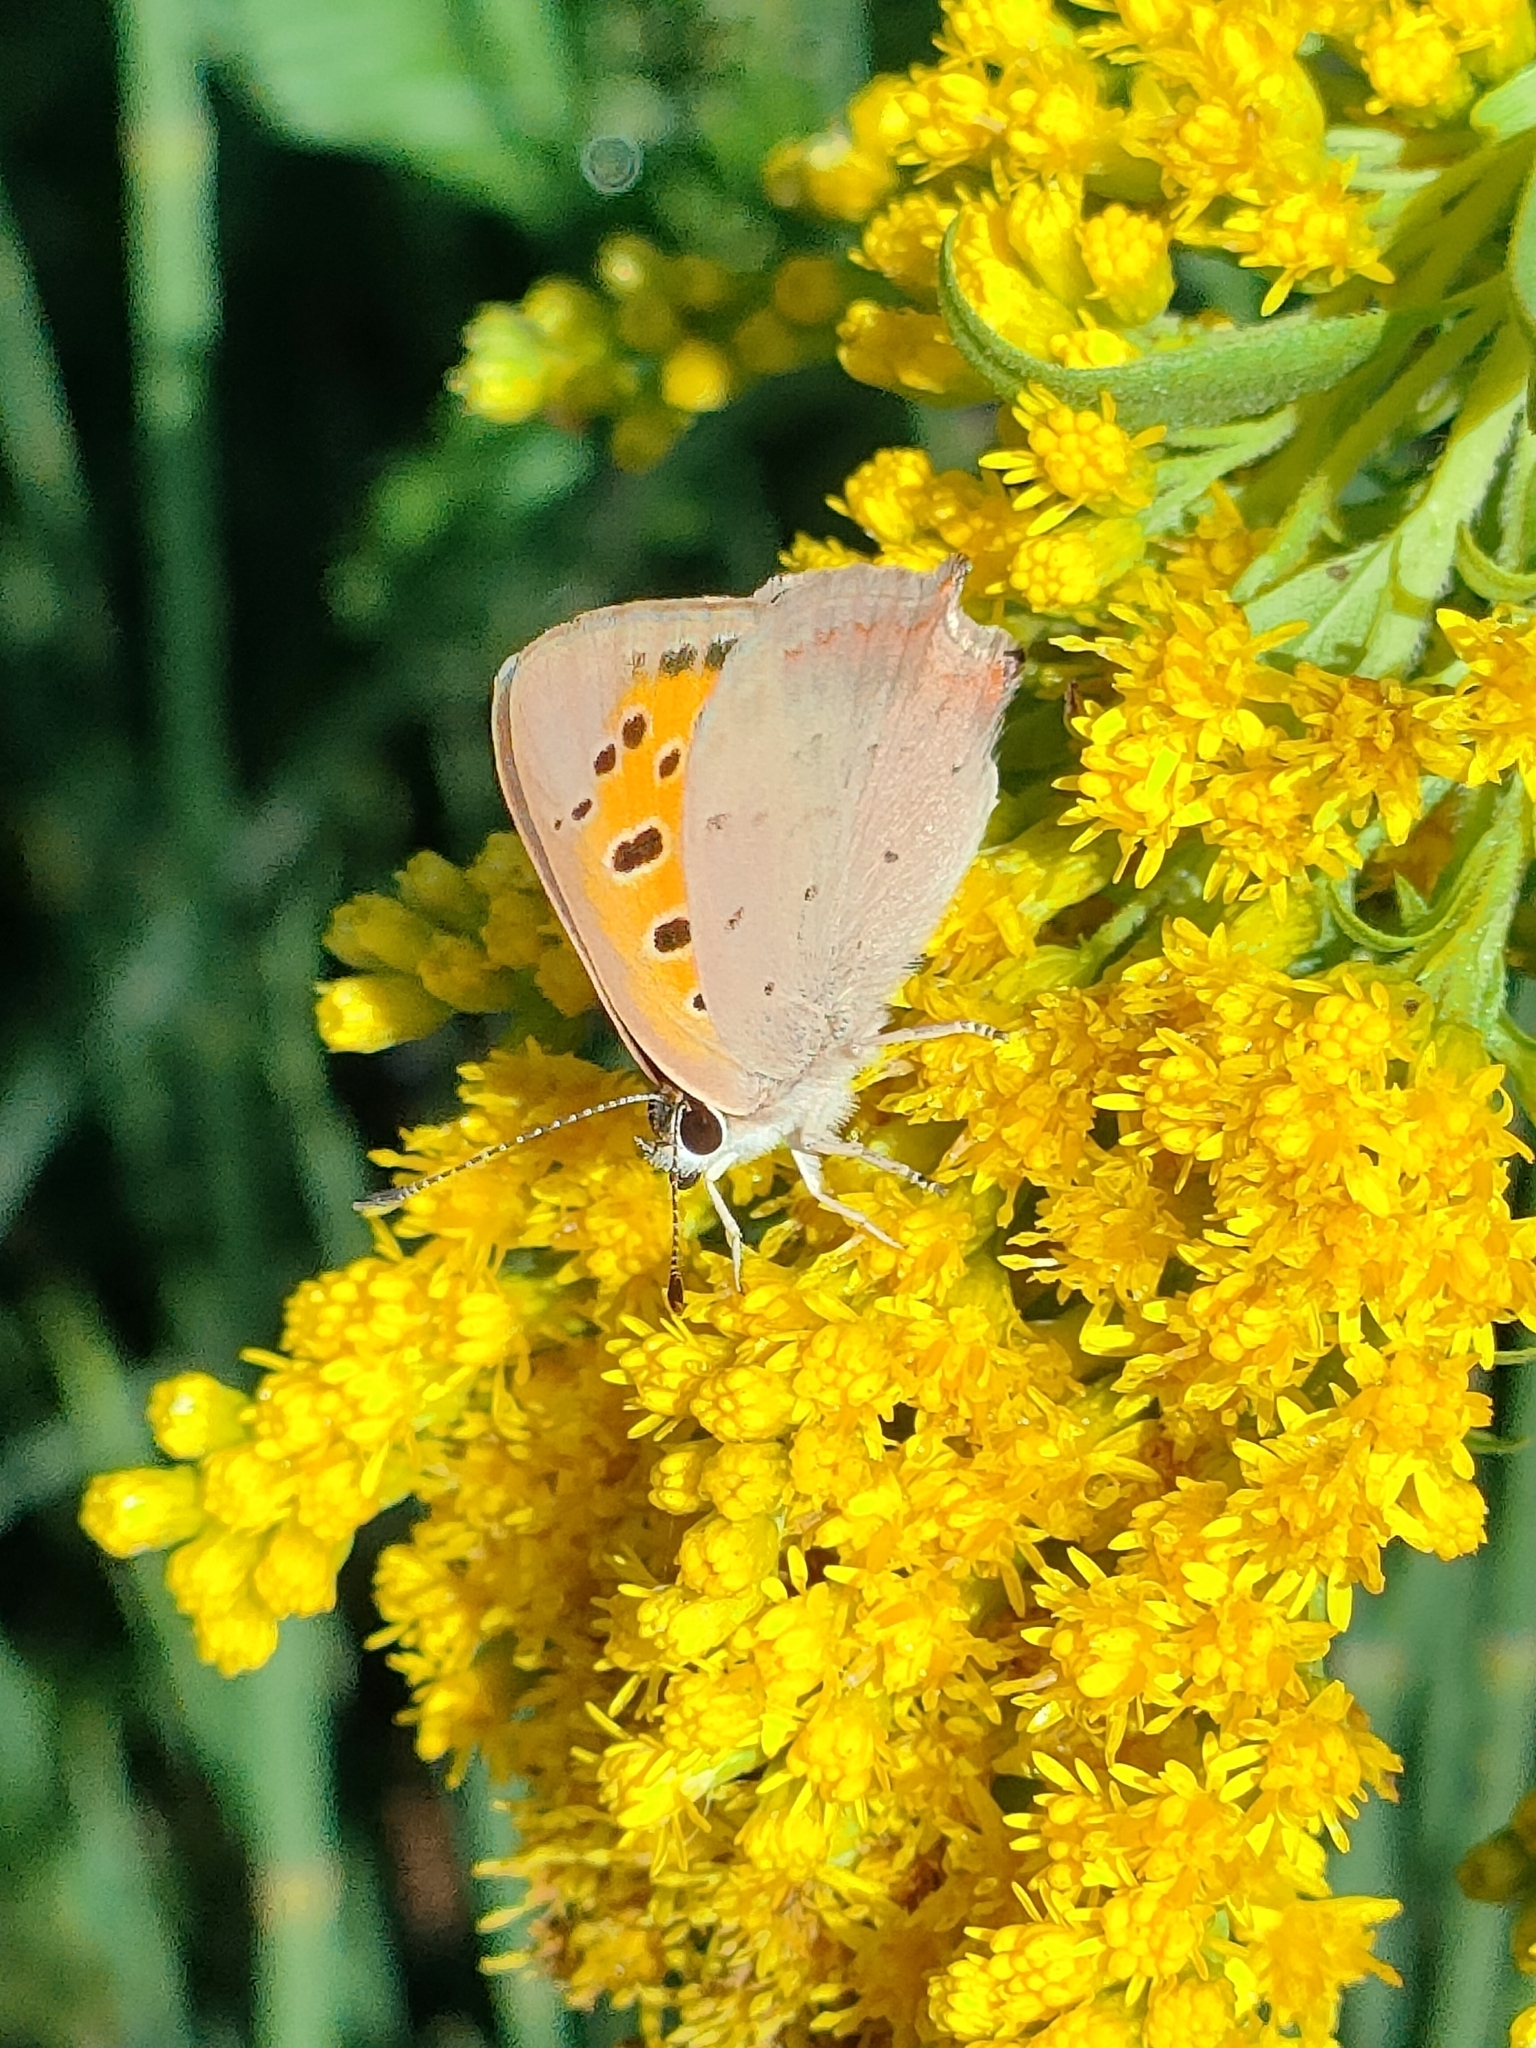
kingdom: Animalia
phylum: Arthropoda
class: Insecta
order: Lepidoptera
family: Lycaenidae
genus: Lycaena
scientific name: Lycaena phlaeas
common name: Small copper
